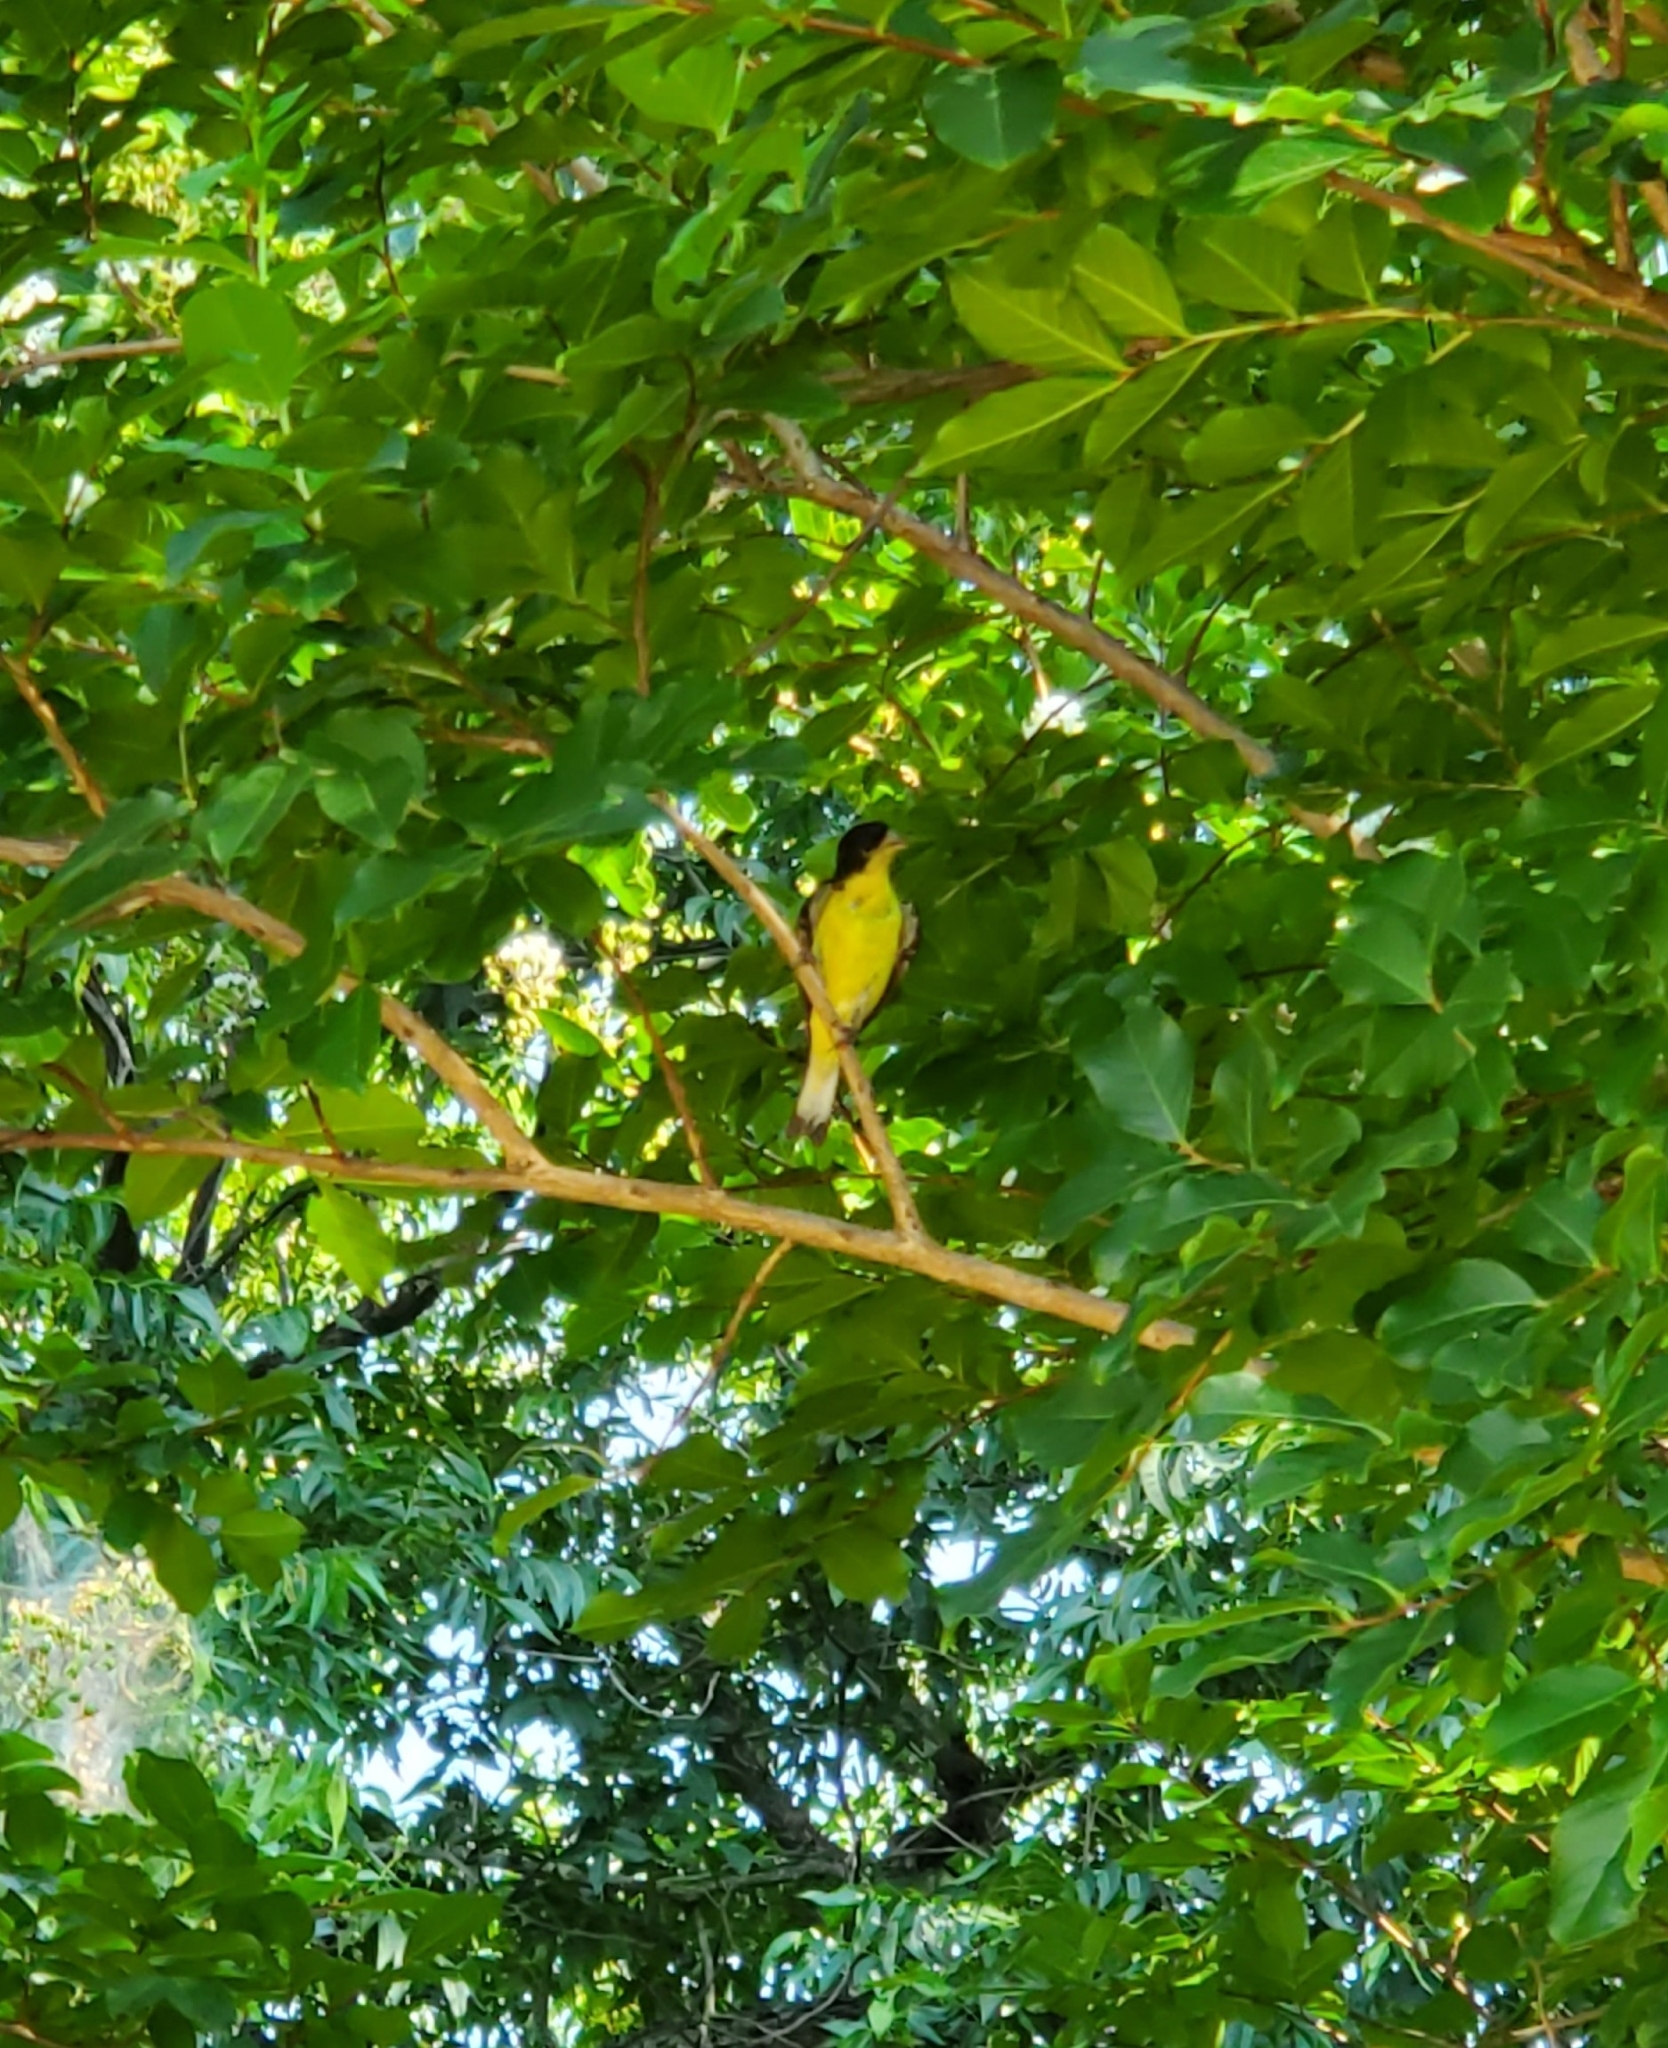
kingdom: Animalia
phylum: Chordata
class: Aves
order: Passeriformes
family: Fringillidae
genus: Spinus
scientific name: Spinus psaltria
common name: Lesser goldfinch
